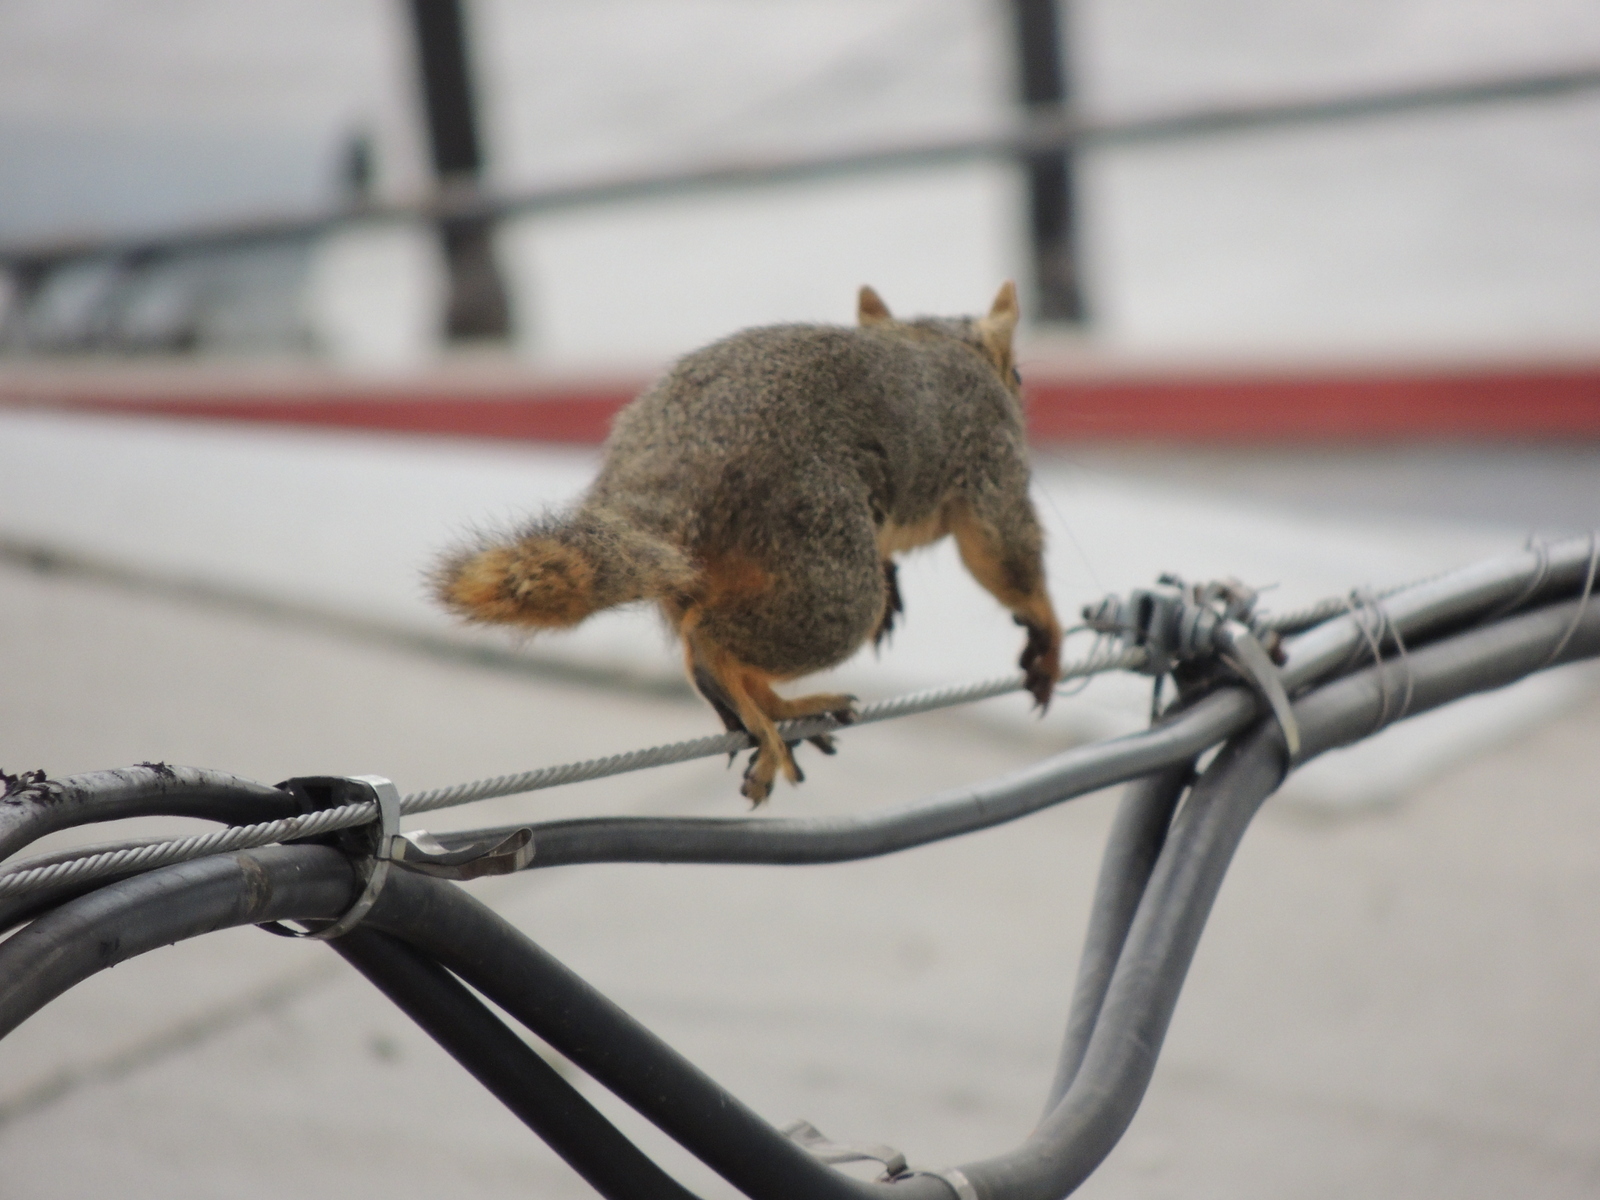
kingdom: Animalia
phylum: Chordata
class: Mammalia
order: Rodentia
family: Sciuridae
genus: Sciurus
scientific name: Sciurus niger
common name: Fox squirrel
